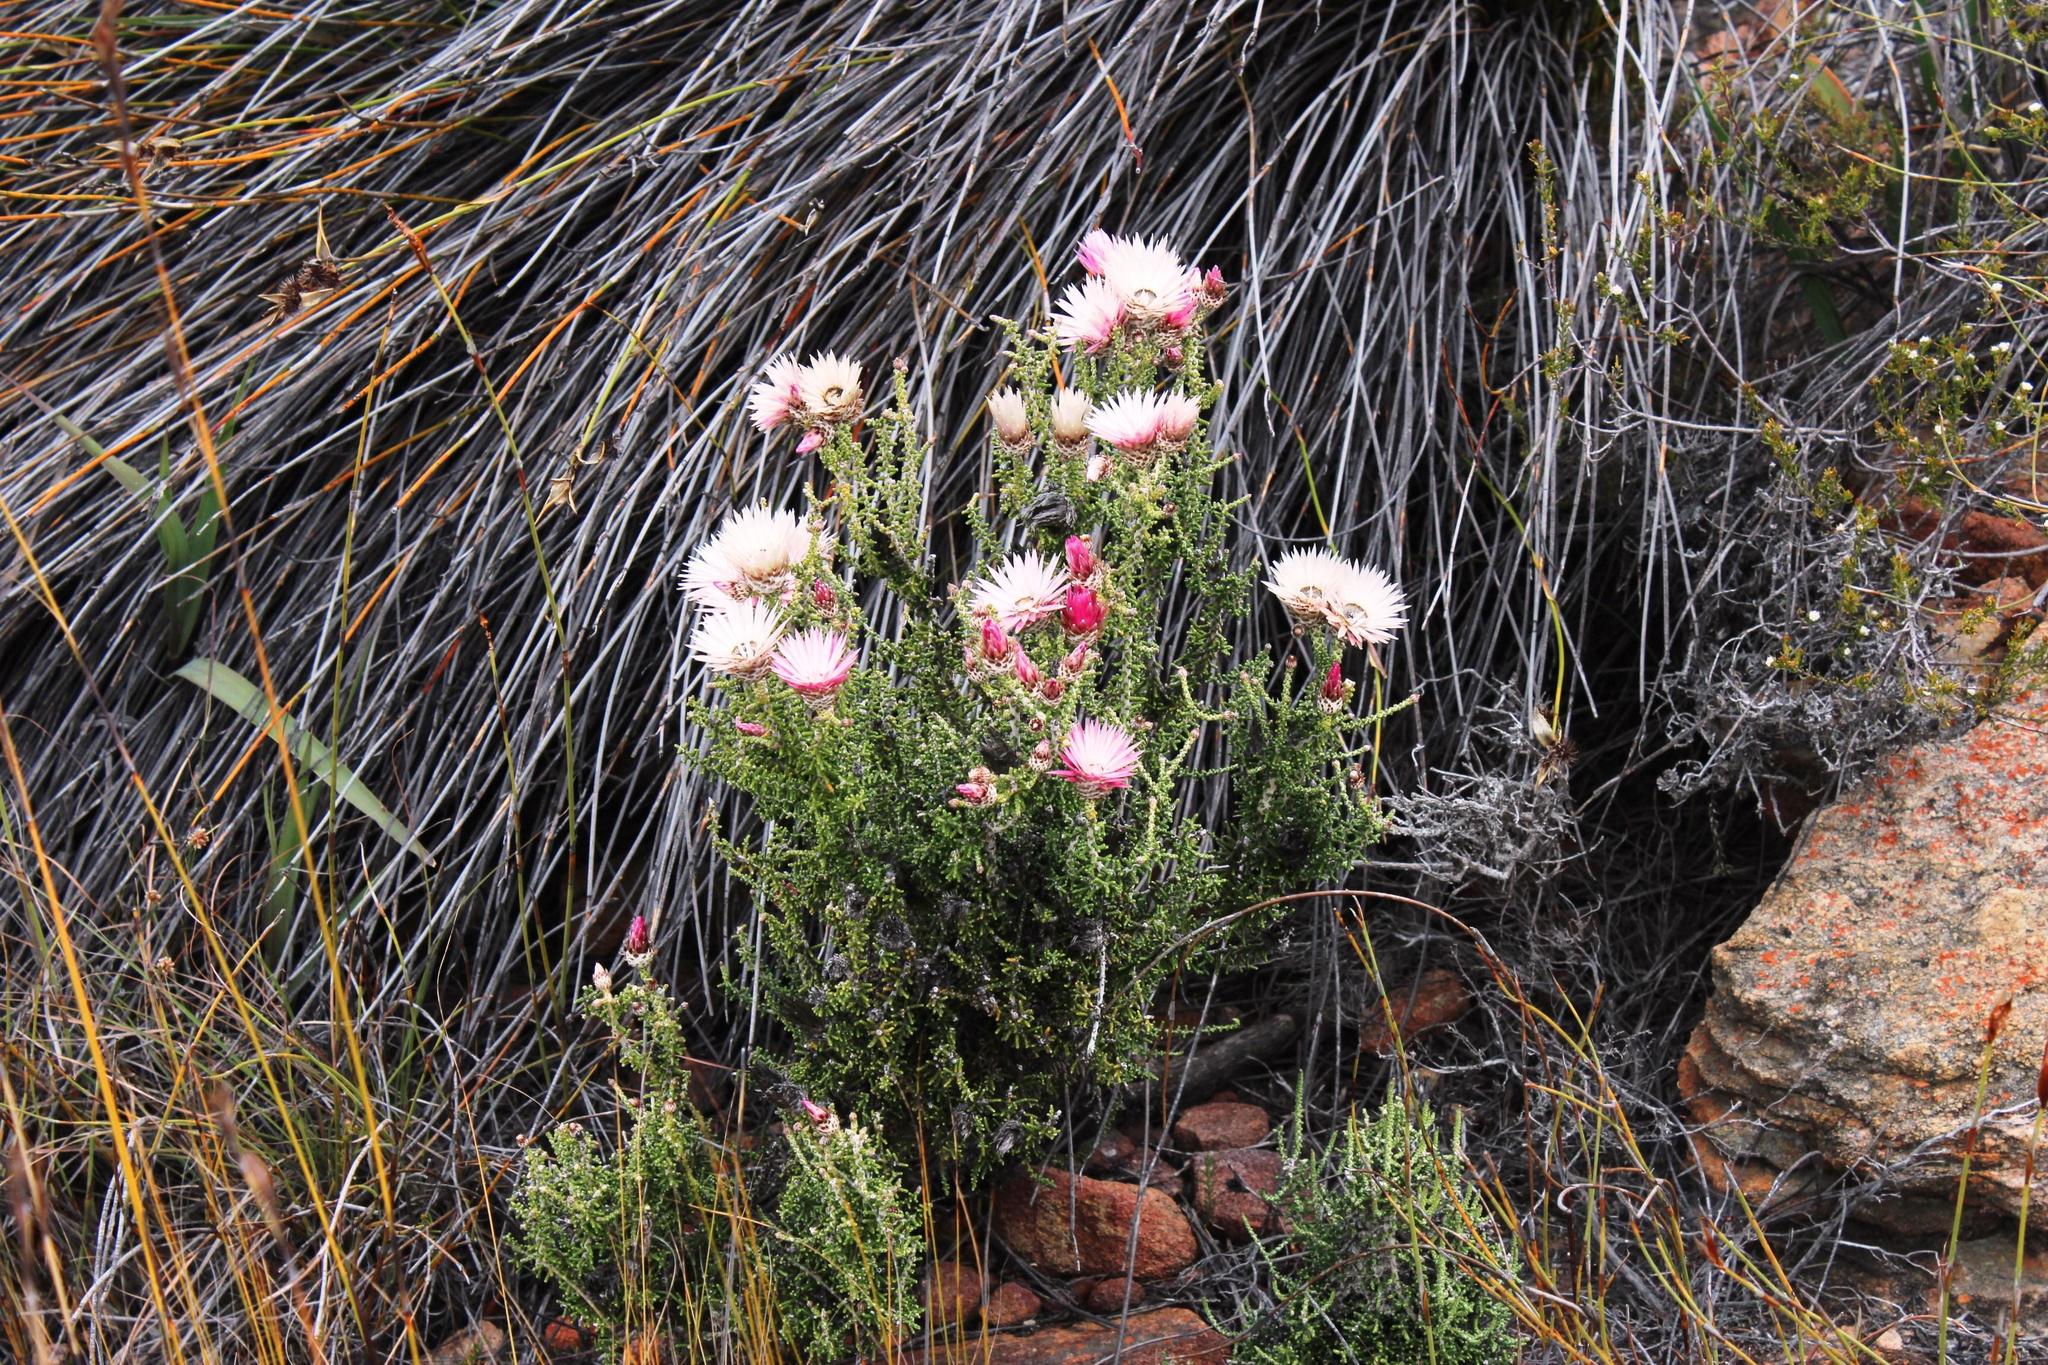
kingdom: Plantae
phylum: Tracheophyta
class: Magnoliopsida
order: Asterales
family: Asteraceae
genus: Phaenocoma
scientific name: Phaenocoma prolifera
